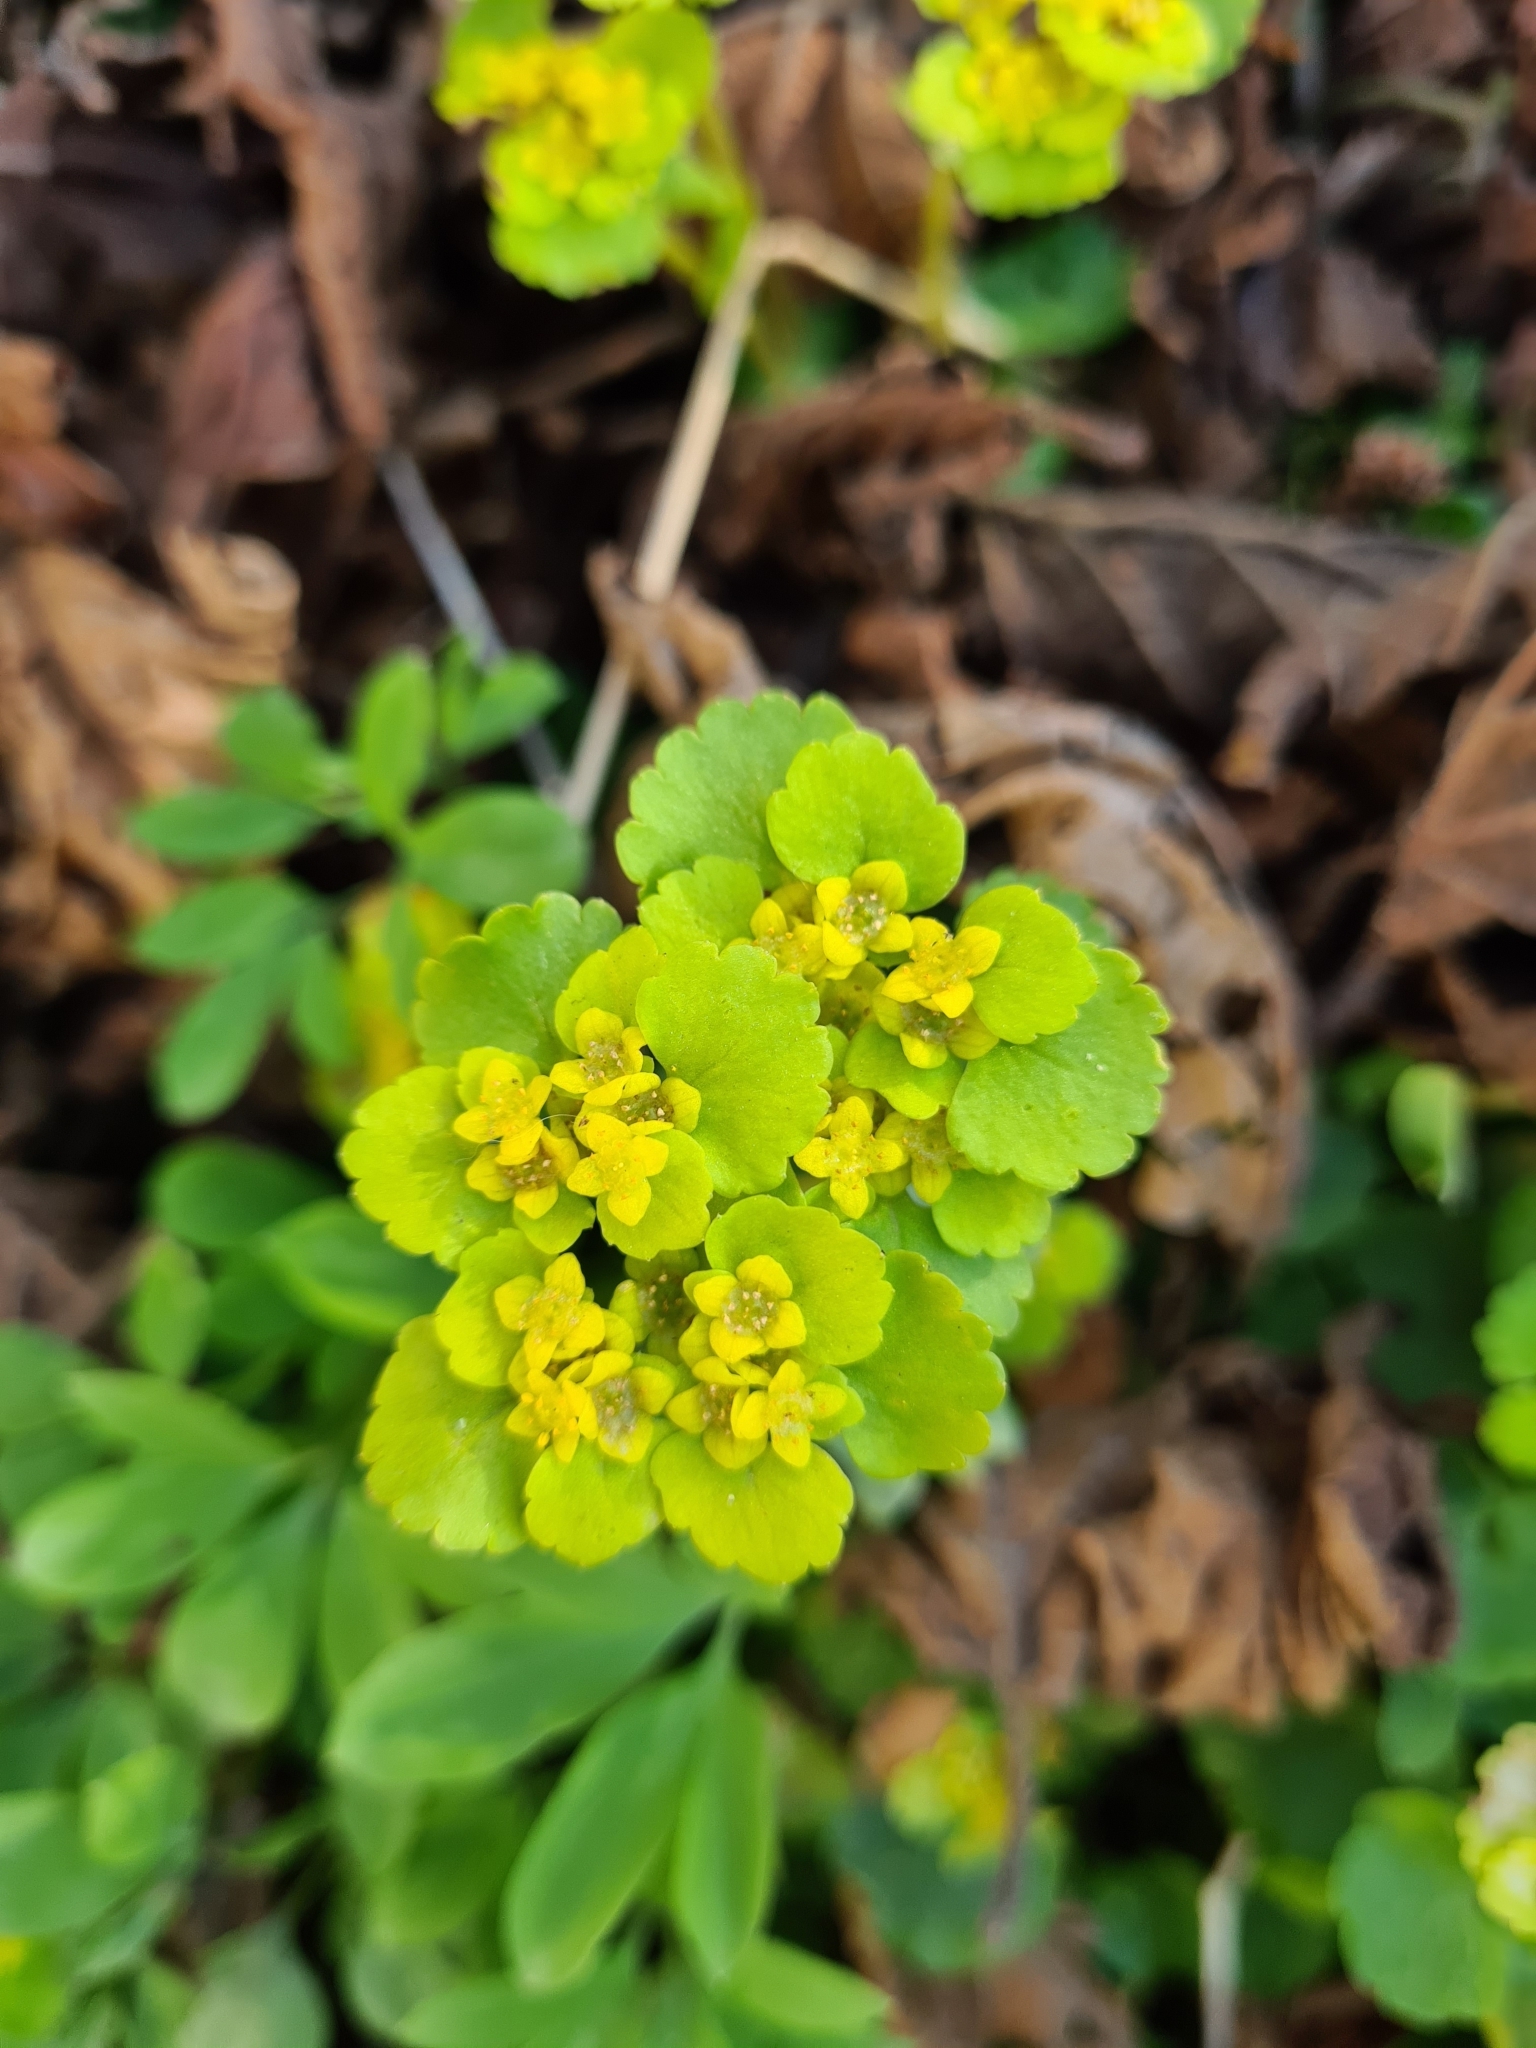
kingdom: Plantae
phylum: Tracheophyta
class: Magnoliopsida
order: Saxifragales
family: Saxifragaceae
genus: Chrysosplenium
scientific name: Chrysosplenium alternifolium
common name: Alternate-leaved golden-saxifrage
